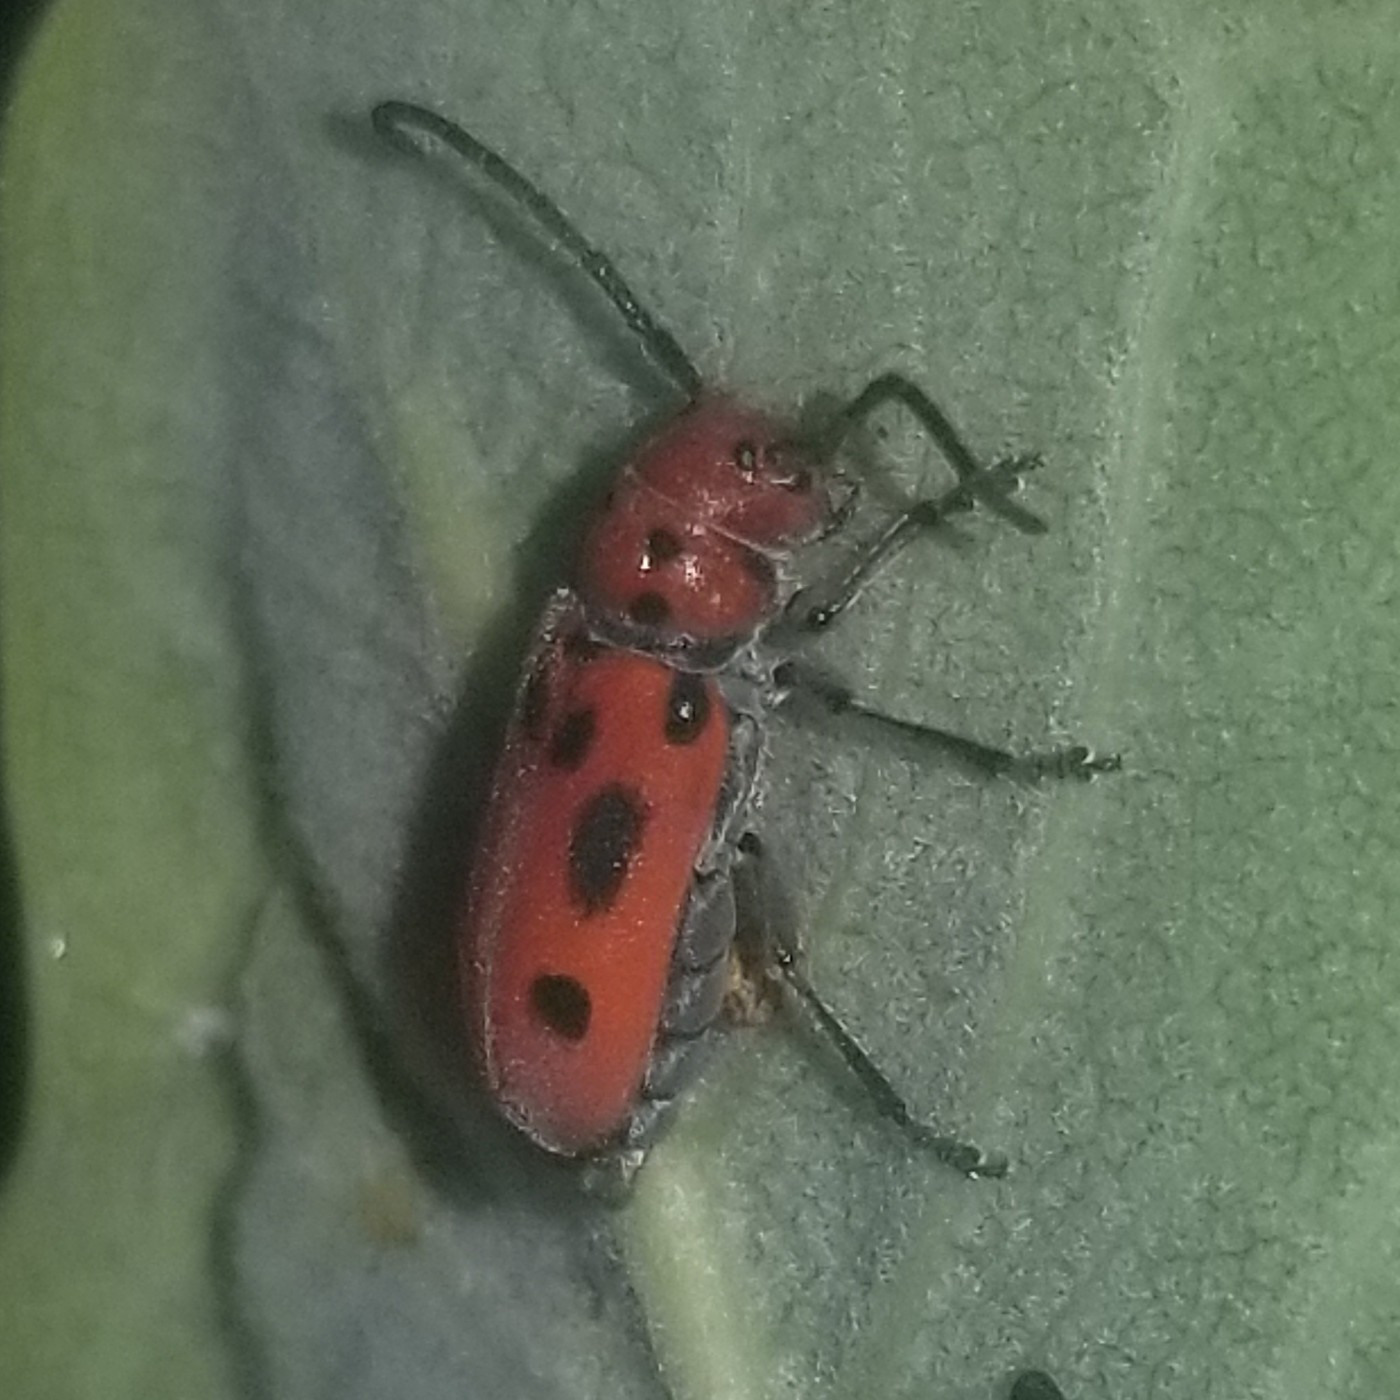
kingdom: Animalia
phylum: Arthropoda
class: Insecta
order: Coleoptera
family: Cerambycidae
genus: Tetraopes
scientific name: Tetraopes tetrophthalmus
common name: Red milkweed beetle
